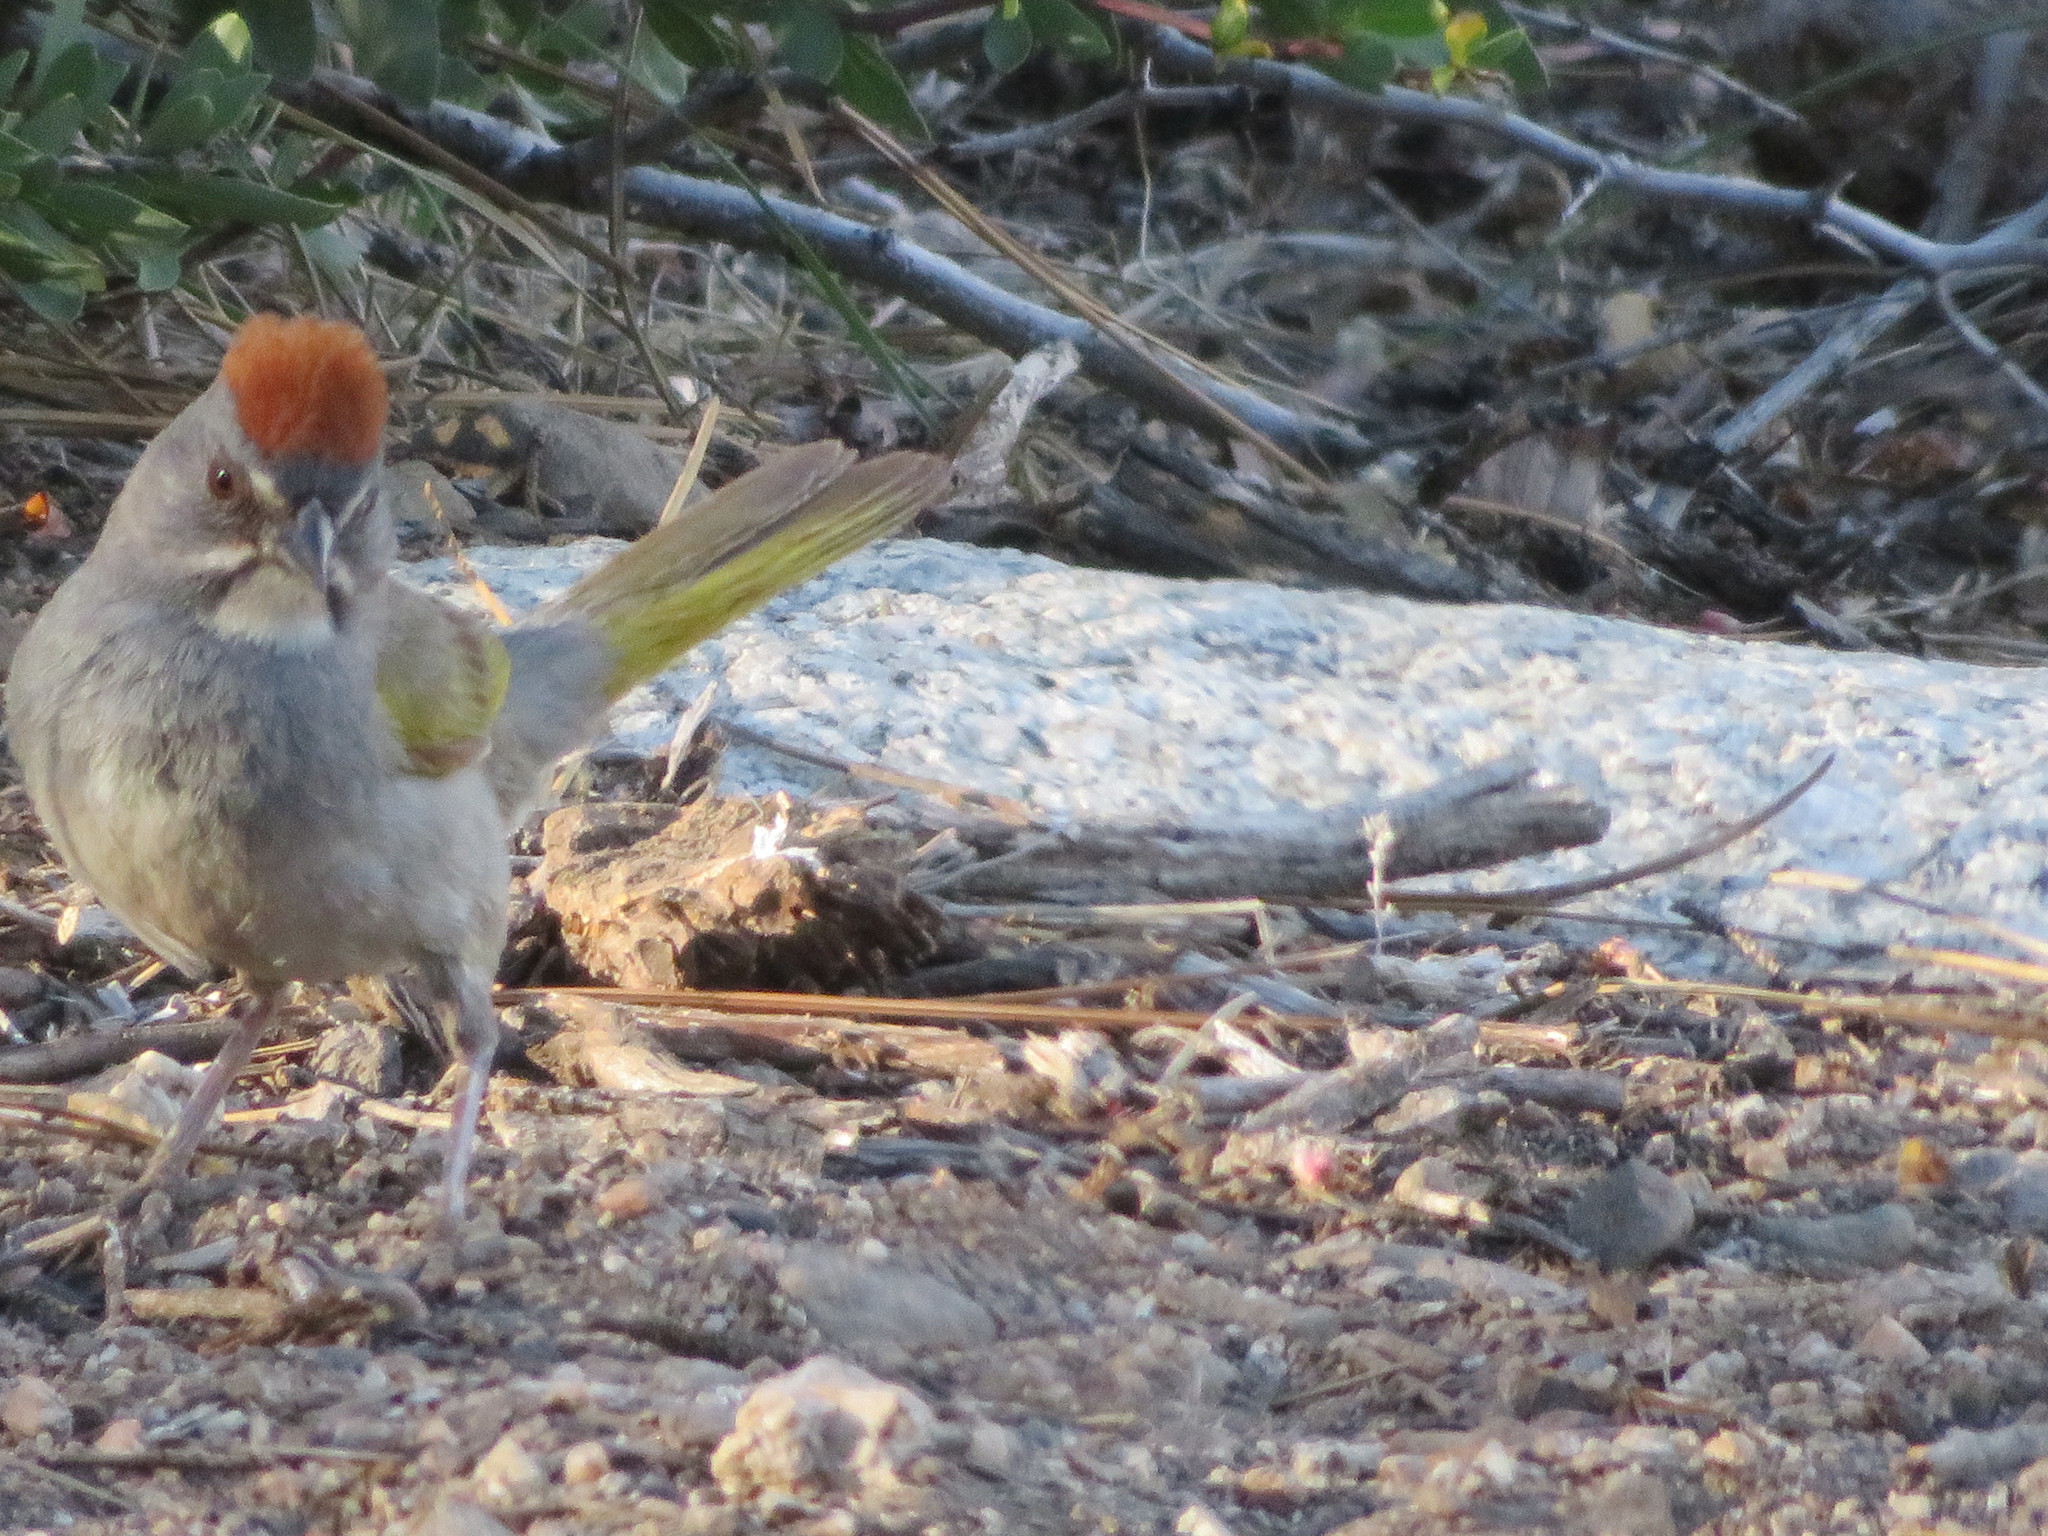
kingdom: Animalia
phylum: Chordata
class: Aves
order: Passeriformes
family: Passerellidae
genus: Pipilo
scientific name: Pipilo chlorurus
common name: Green-tailed towhee
